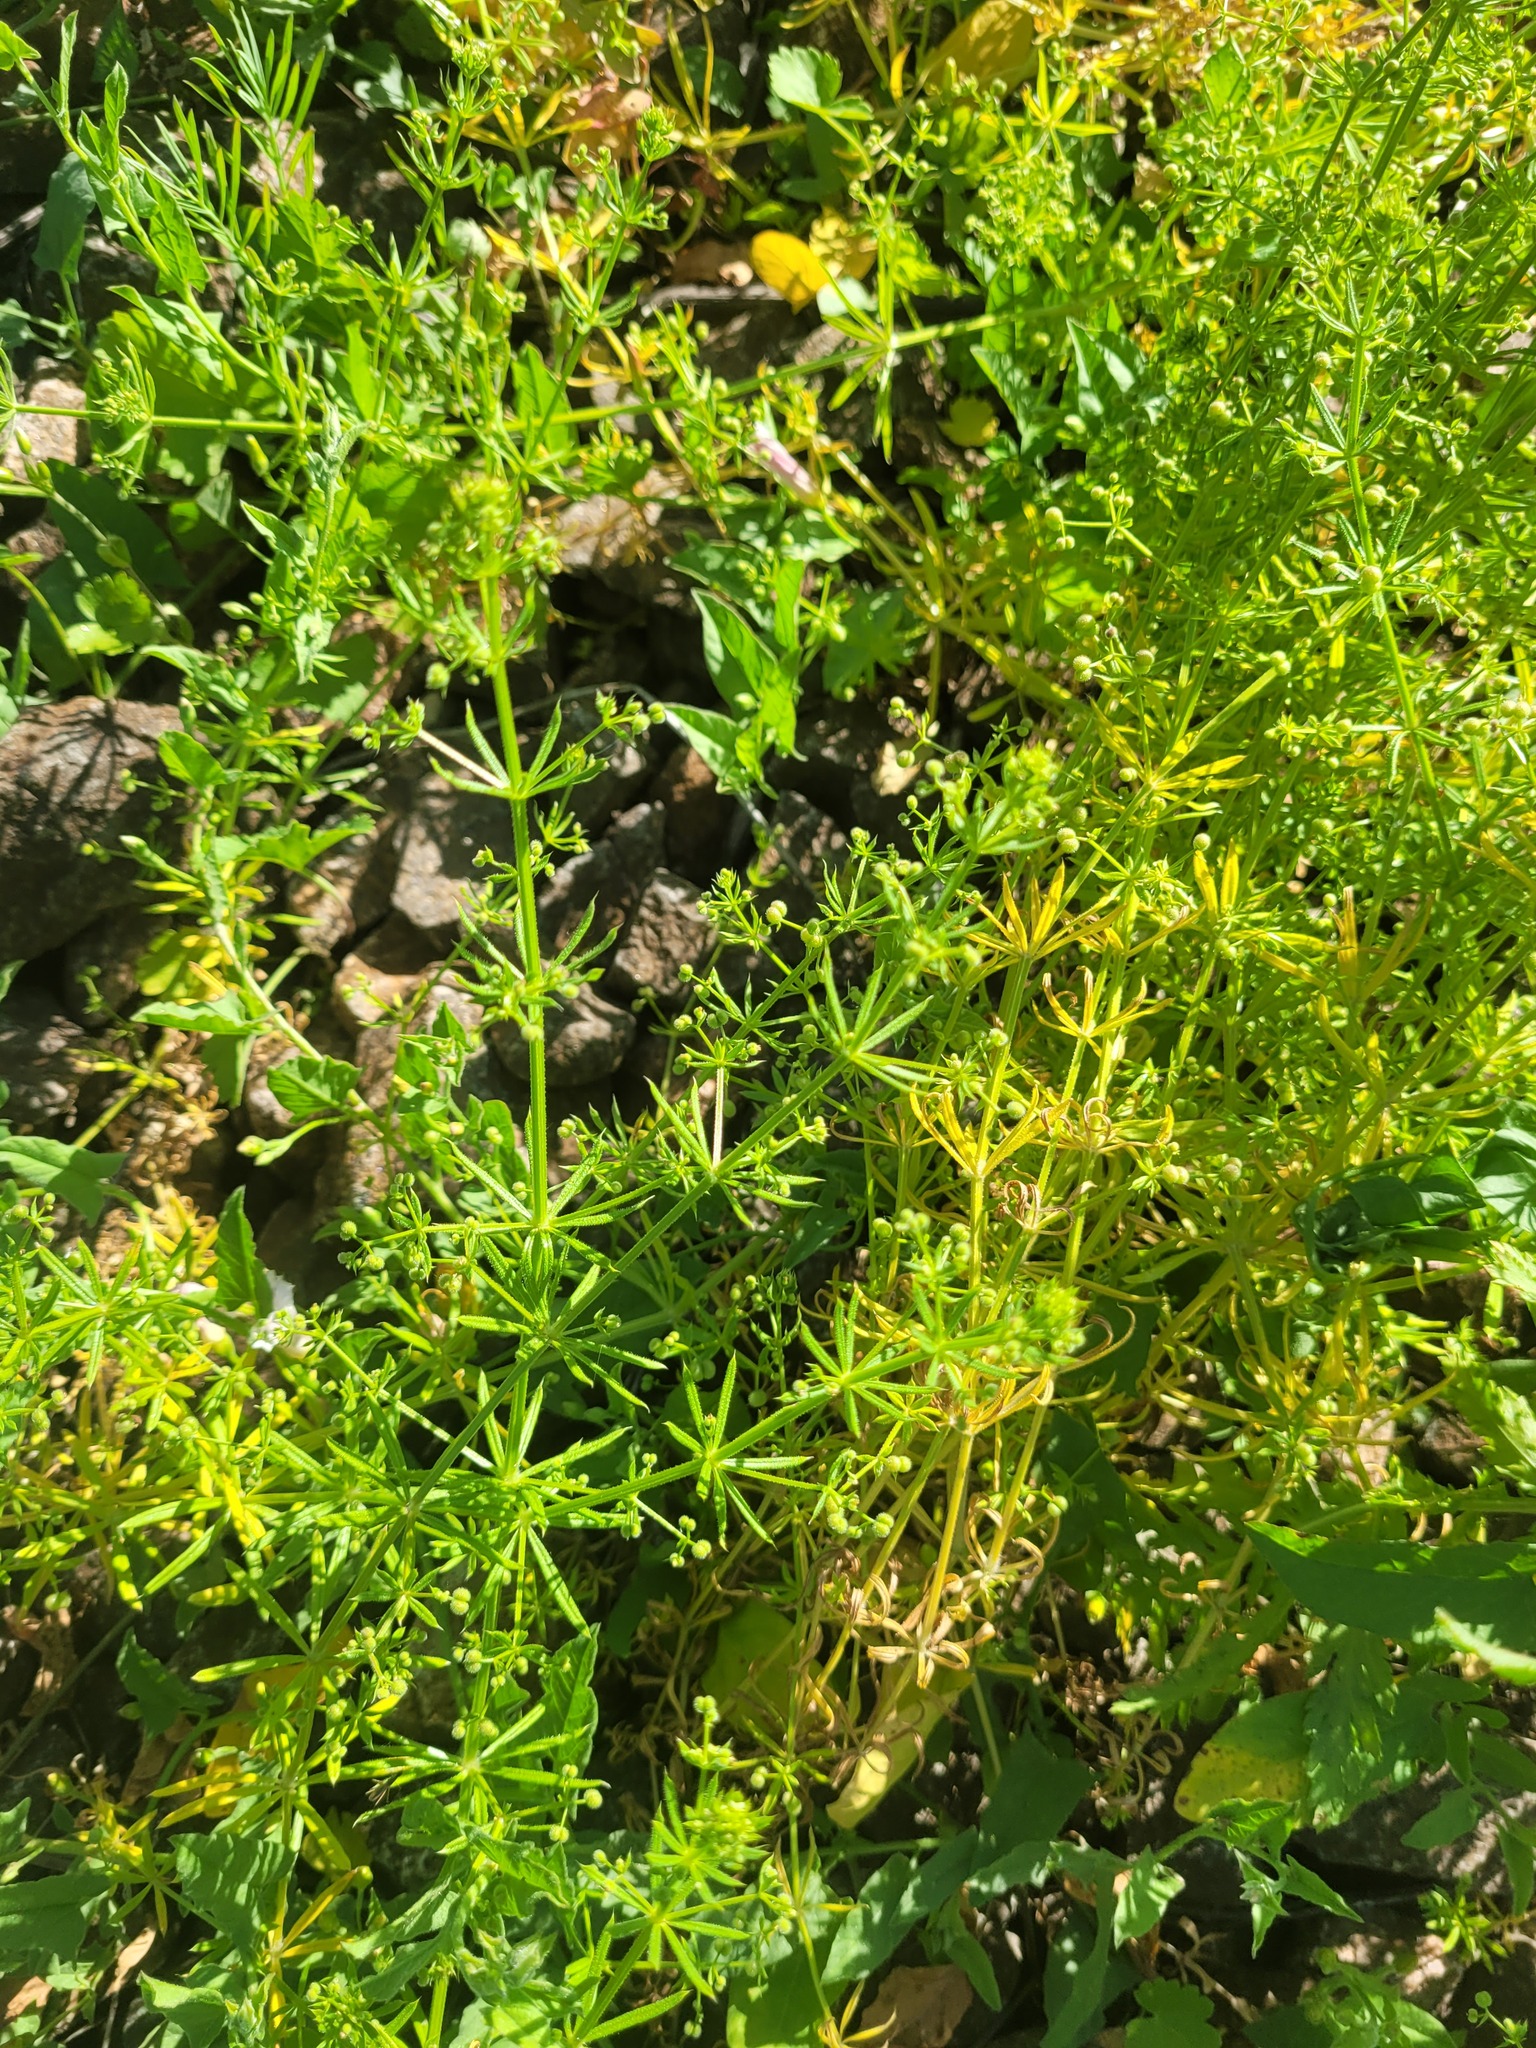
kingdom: Plantae
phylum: Tracheophyta
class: Magnoliopsida
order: Gentianales
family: Rubiaceae
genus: Galium
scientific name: Galium
